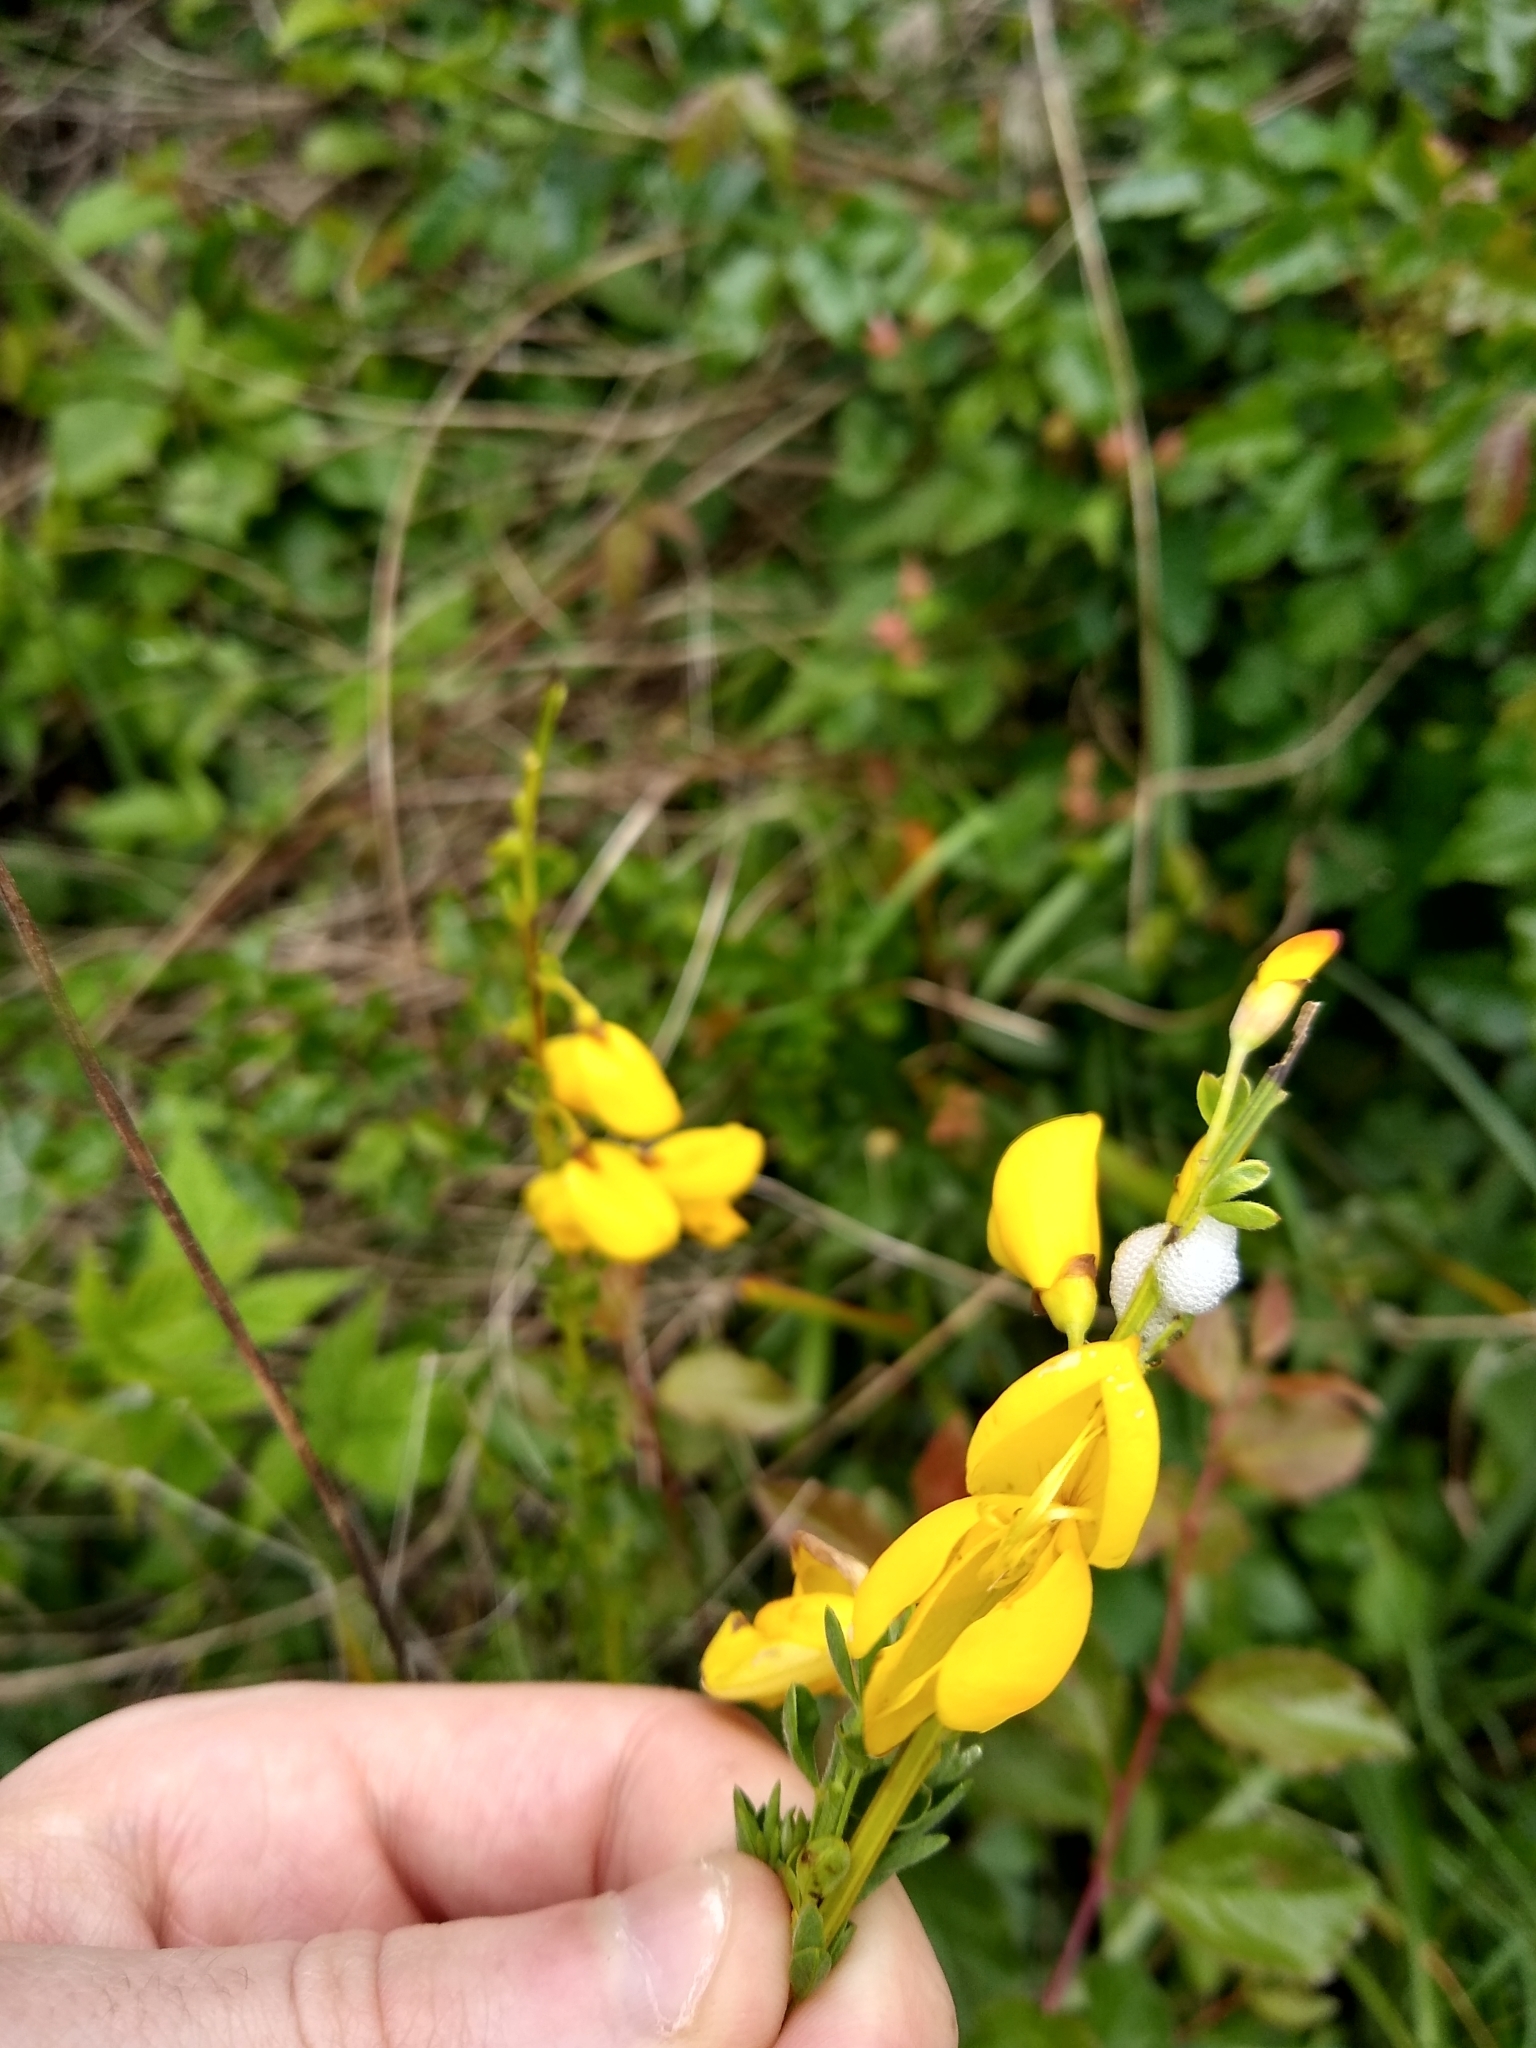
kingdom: Plantae
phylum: Tracheophyta
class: Magnoliopsida
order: Fabales
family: Fabaceae
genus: Cytisus
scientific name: Cytisus scoparius
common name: Scotch broom
